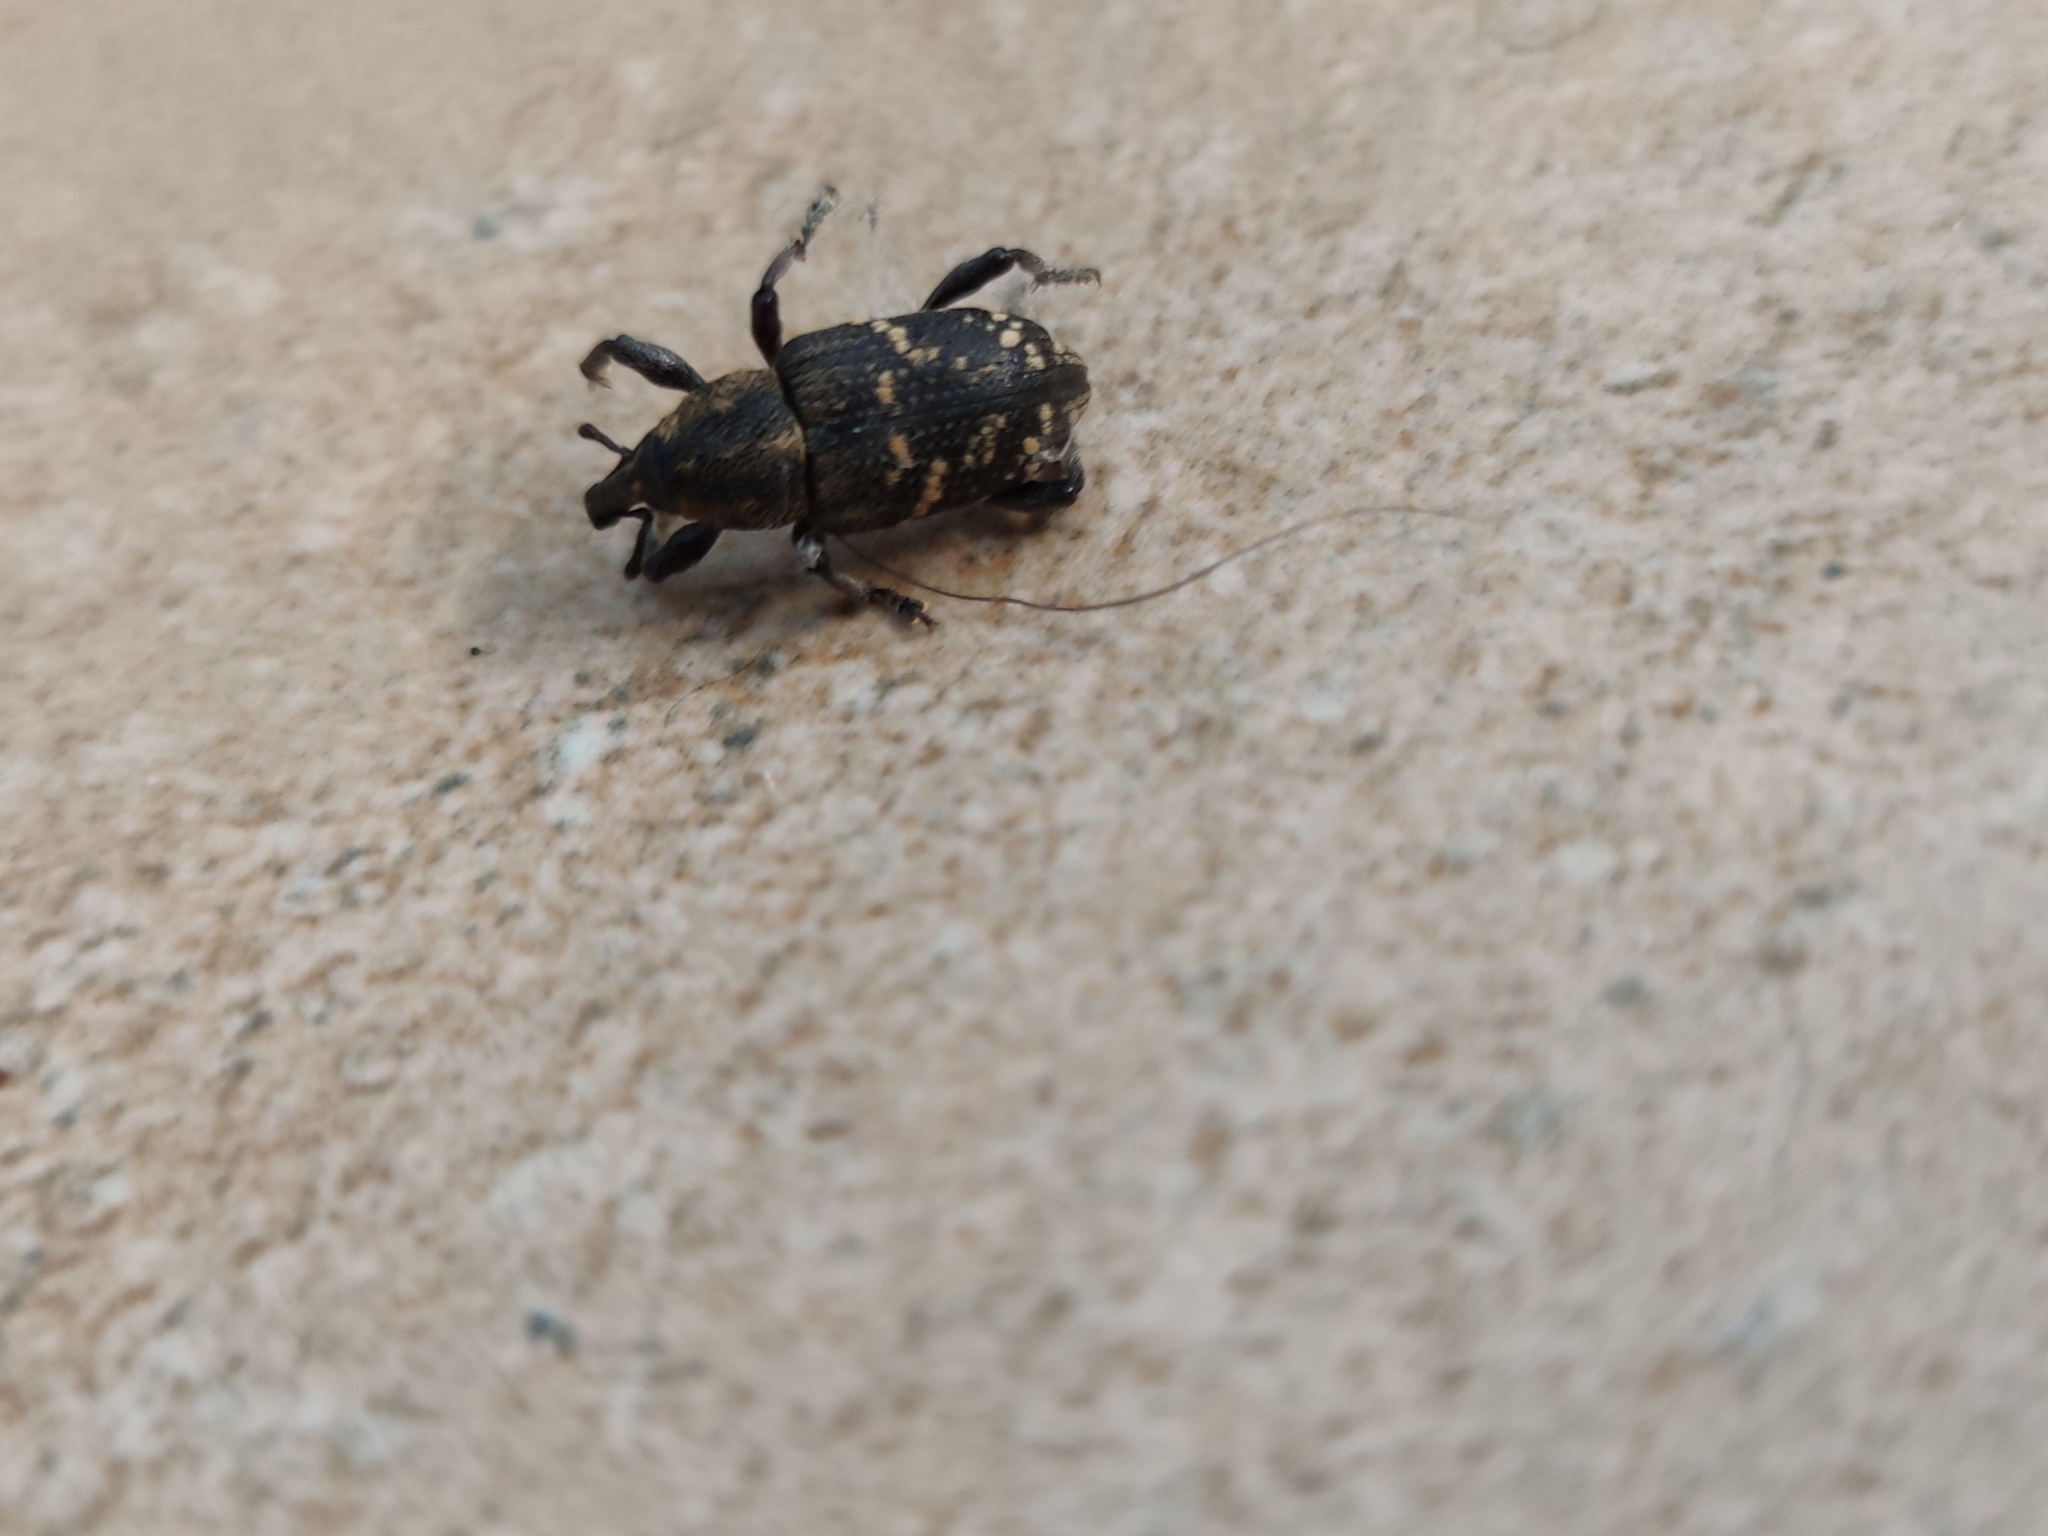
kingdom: Animalia
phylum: Arthropoda
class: Insecta
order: Coleoptera
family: Curculionidae
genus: Hylobius
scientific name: Hylobius abietis
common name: Large pine weevil
